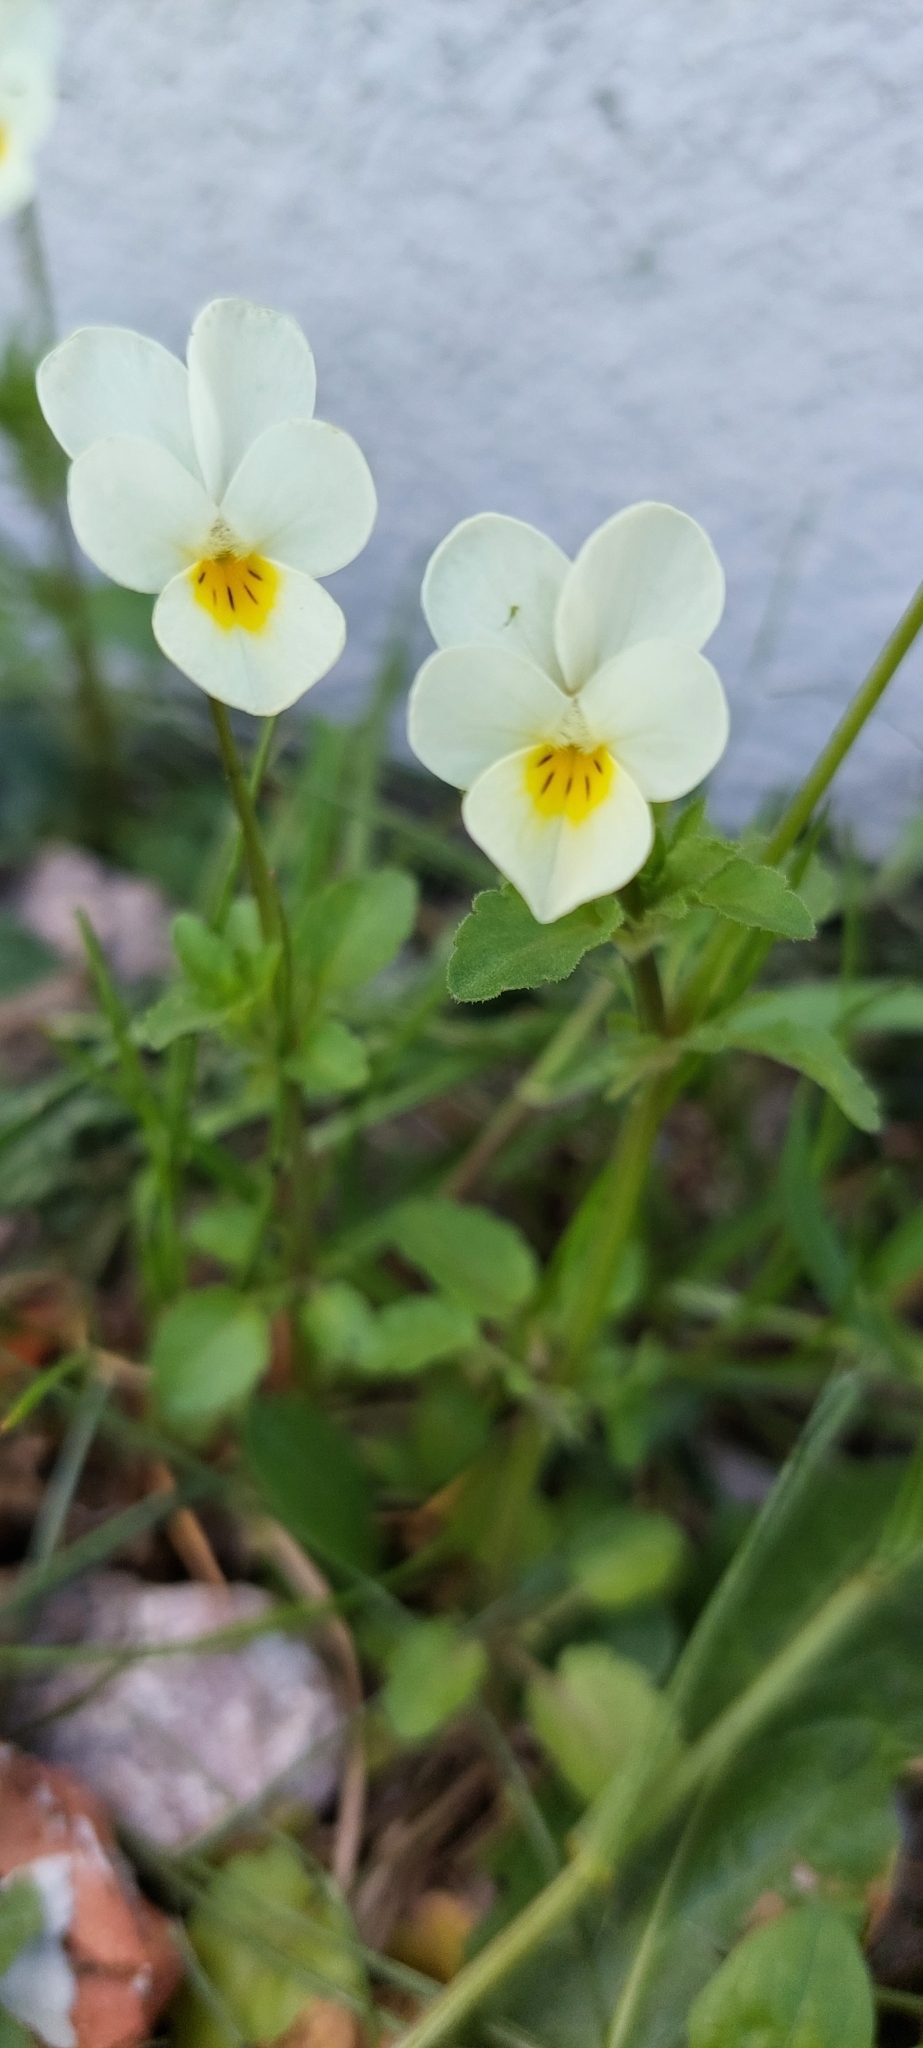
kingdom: Plantae
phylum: Tracheophyta
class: Magnoliopsida
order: Malpighiales
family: Violaceae
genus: Viola
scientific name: Viola arvensis
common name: Field pansy
